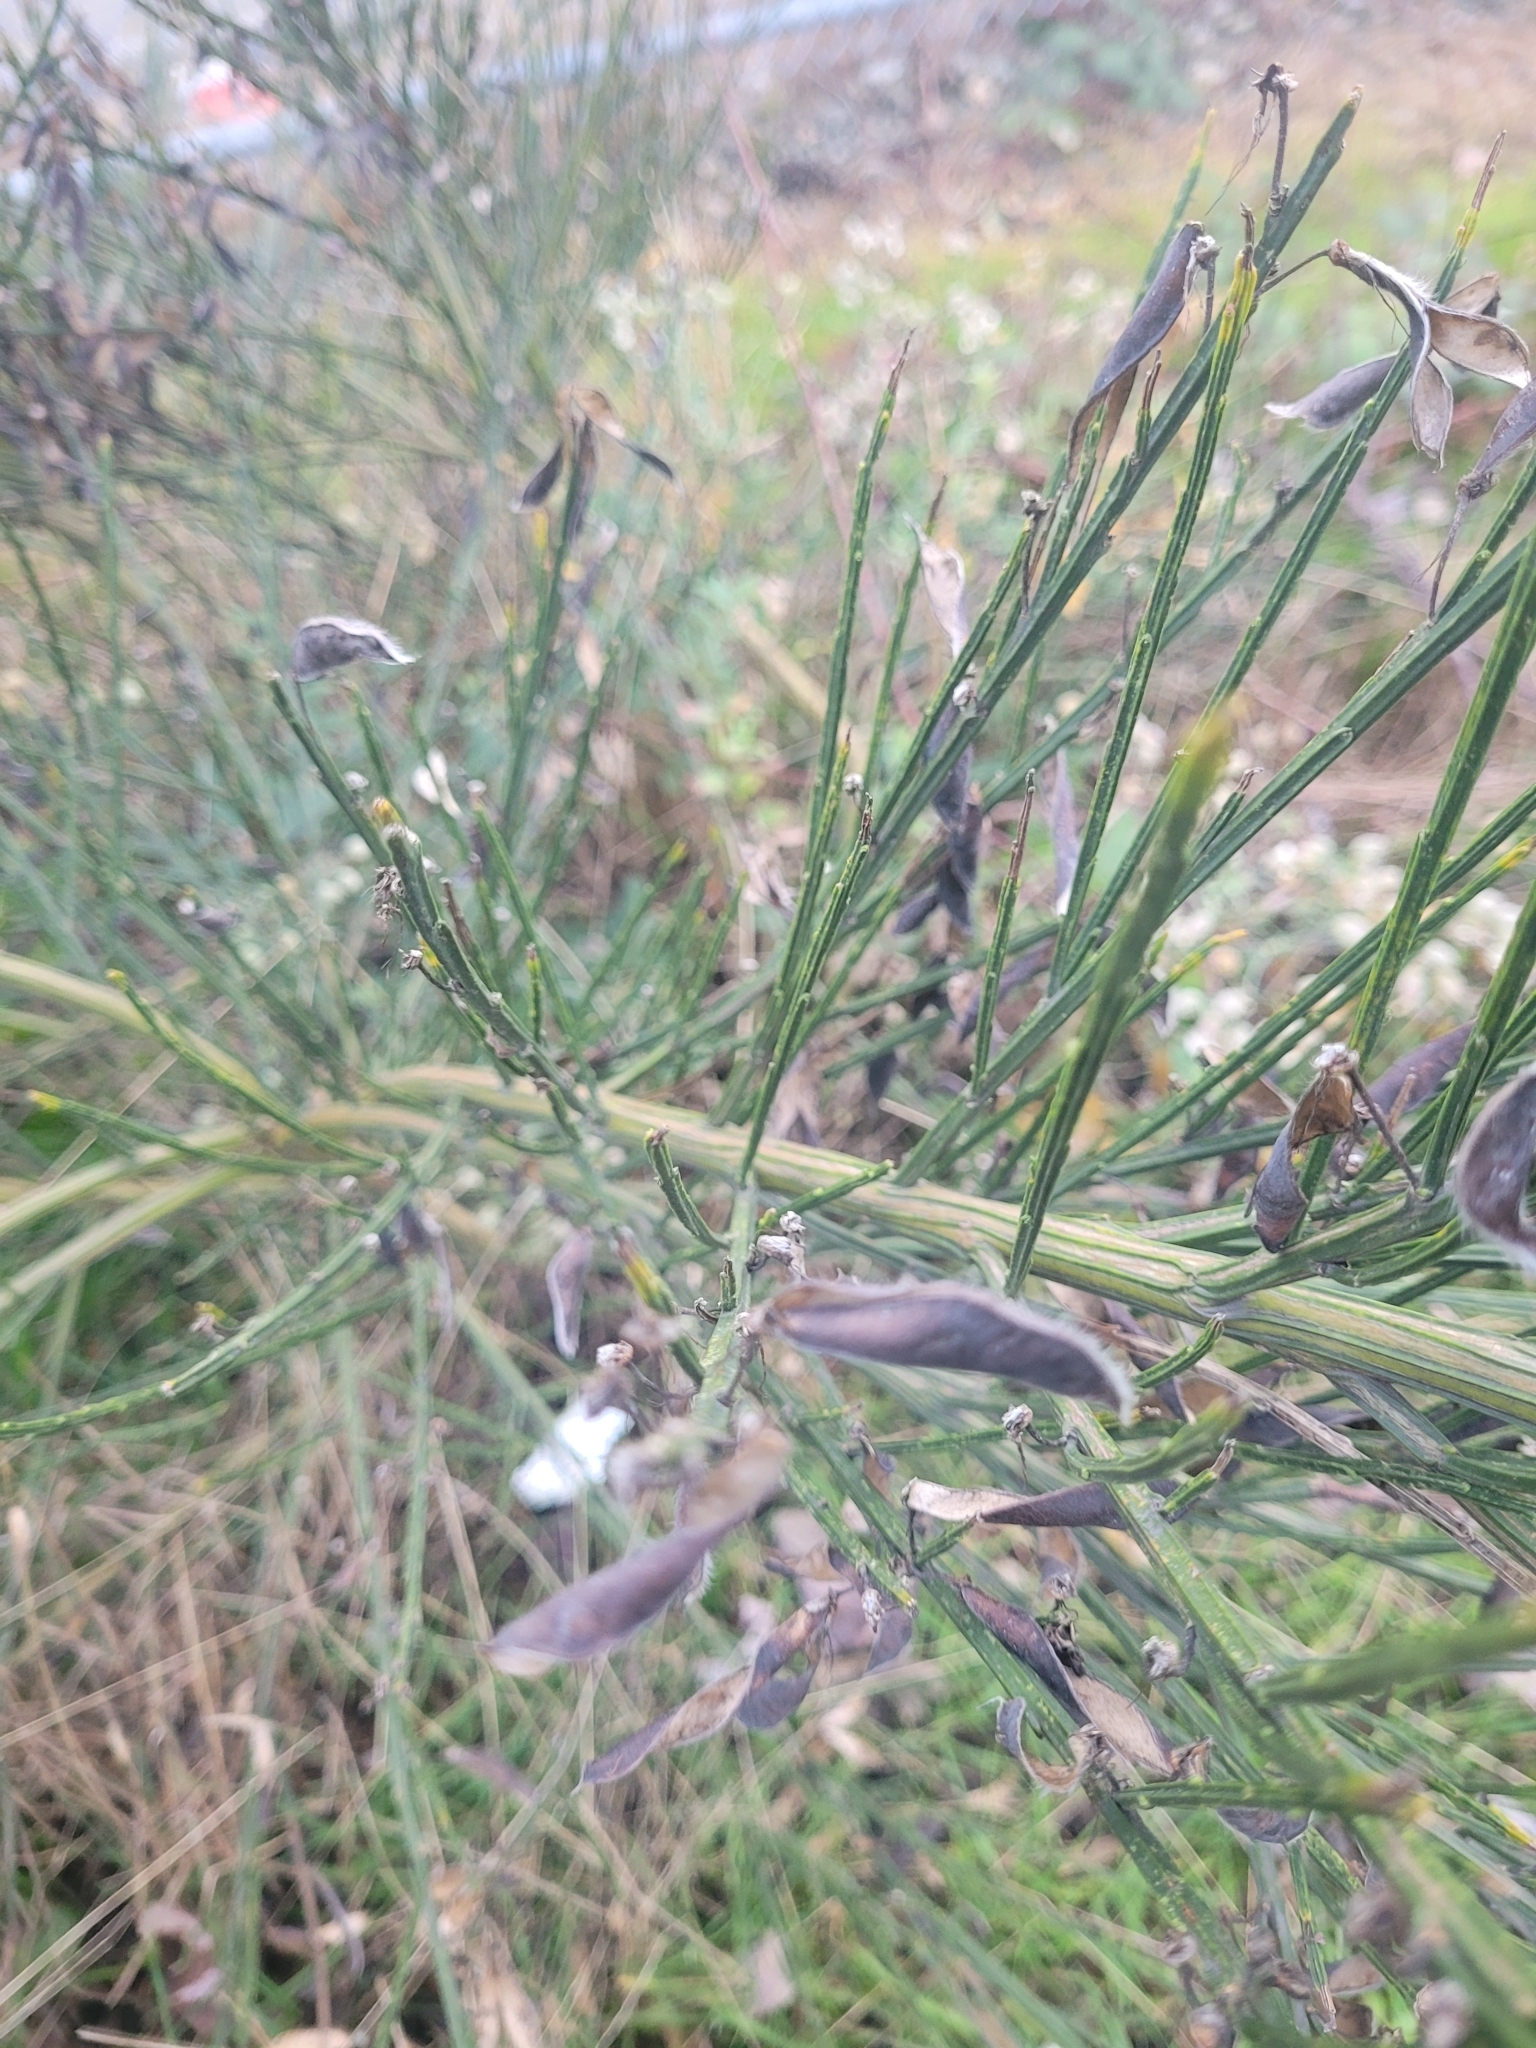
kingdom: Plantae
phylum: Tracheophyta
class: Magnoliopsida
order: Fabales
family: Fabaceae
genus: Cytisus
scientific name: Cytisus scoparius
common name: Scotch broom
